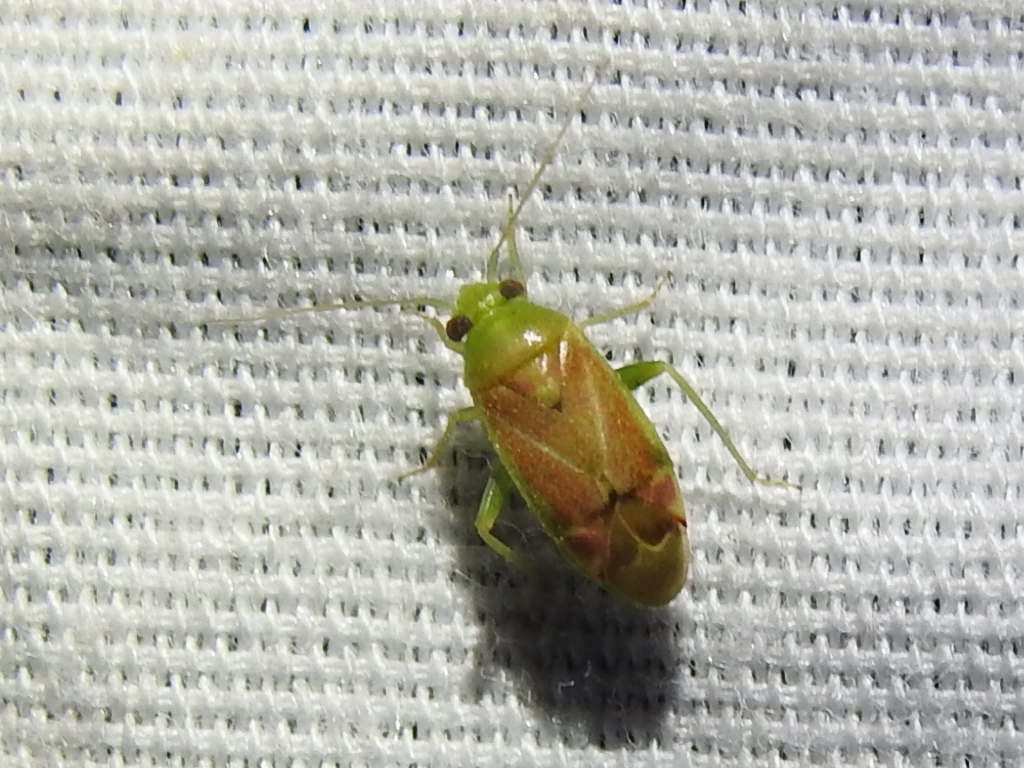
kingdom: Animalia
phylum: Arthropoda
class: Insecta
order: Hemiptera
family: Miridae
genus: Dichrooscytus
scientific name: Dichrooscytus
